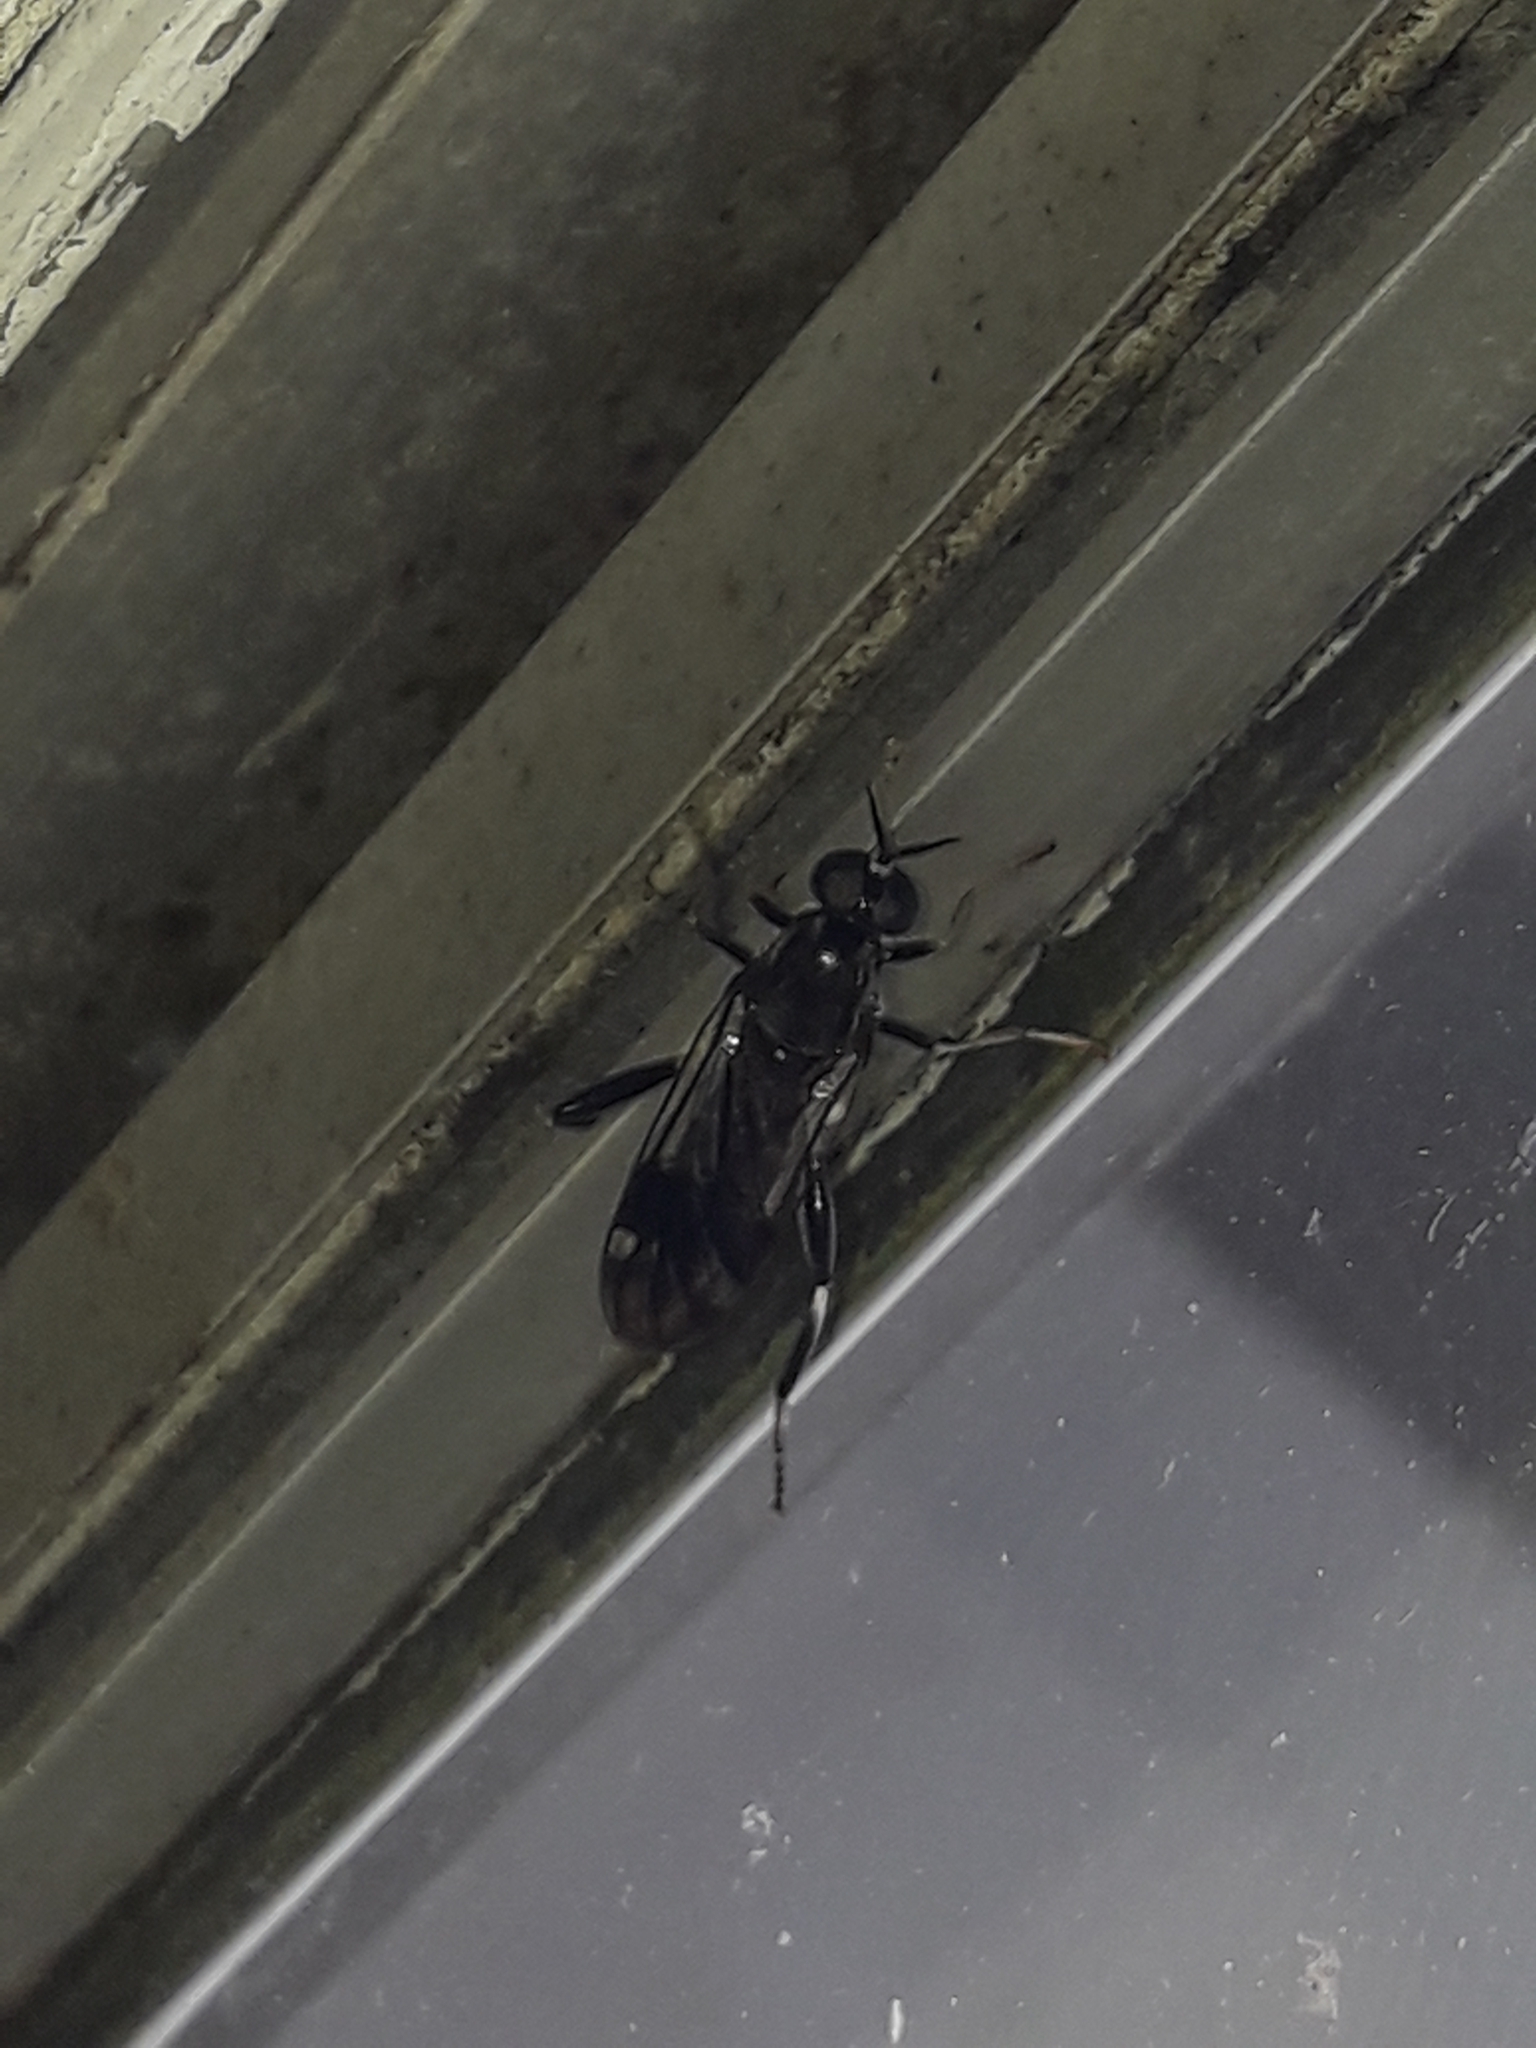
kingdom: Animalia
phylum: Arthropoda
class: Insecta
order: Diptera
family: Stratiomyidae
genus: Exaireta
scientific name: Exaireta spinigera
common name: Blue soldier fly
